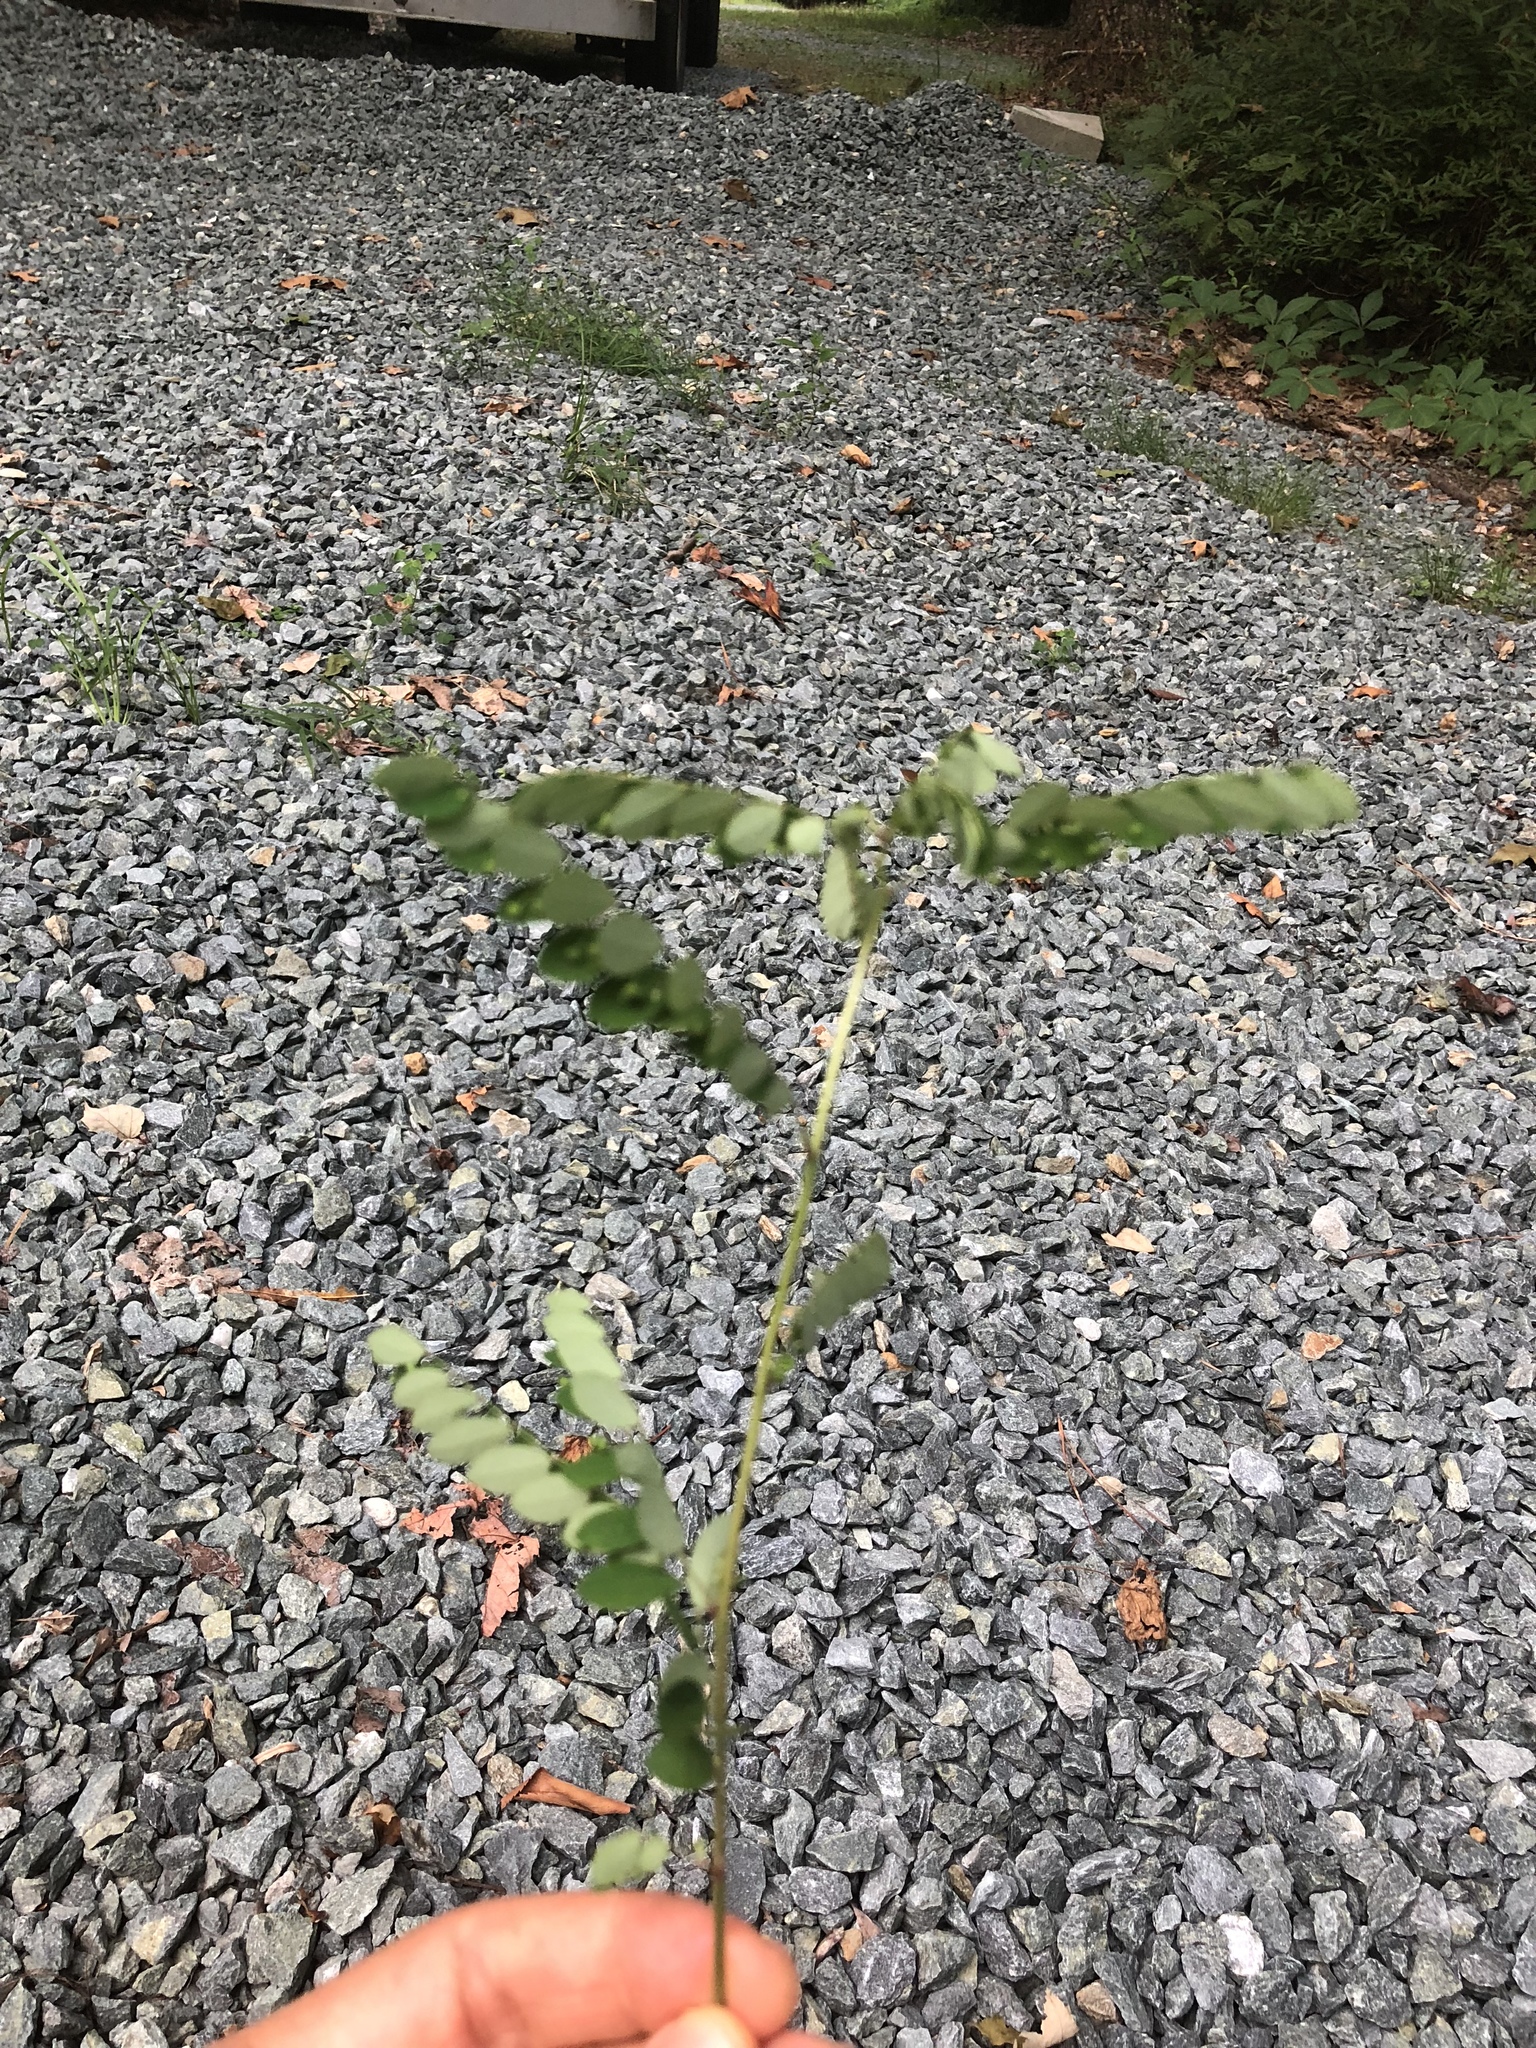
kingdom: Plantae
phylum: Tracheophyta
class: Magnoliopsida
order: Malpighiales
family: Phyllanthaceae
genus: Phyllanthus
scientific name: Phyllanthus tenellus
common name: Mascarene island leaf-flower
